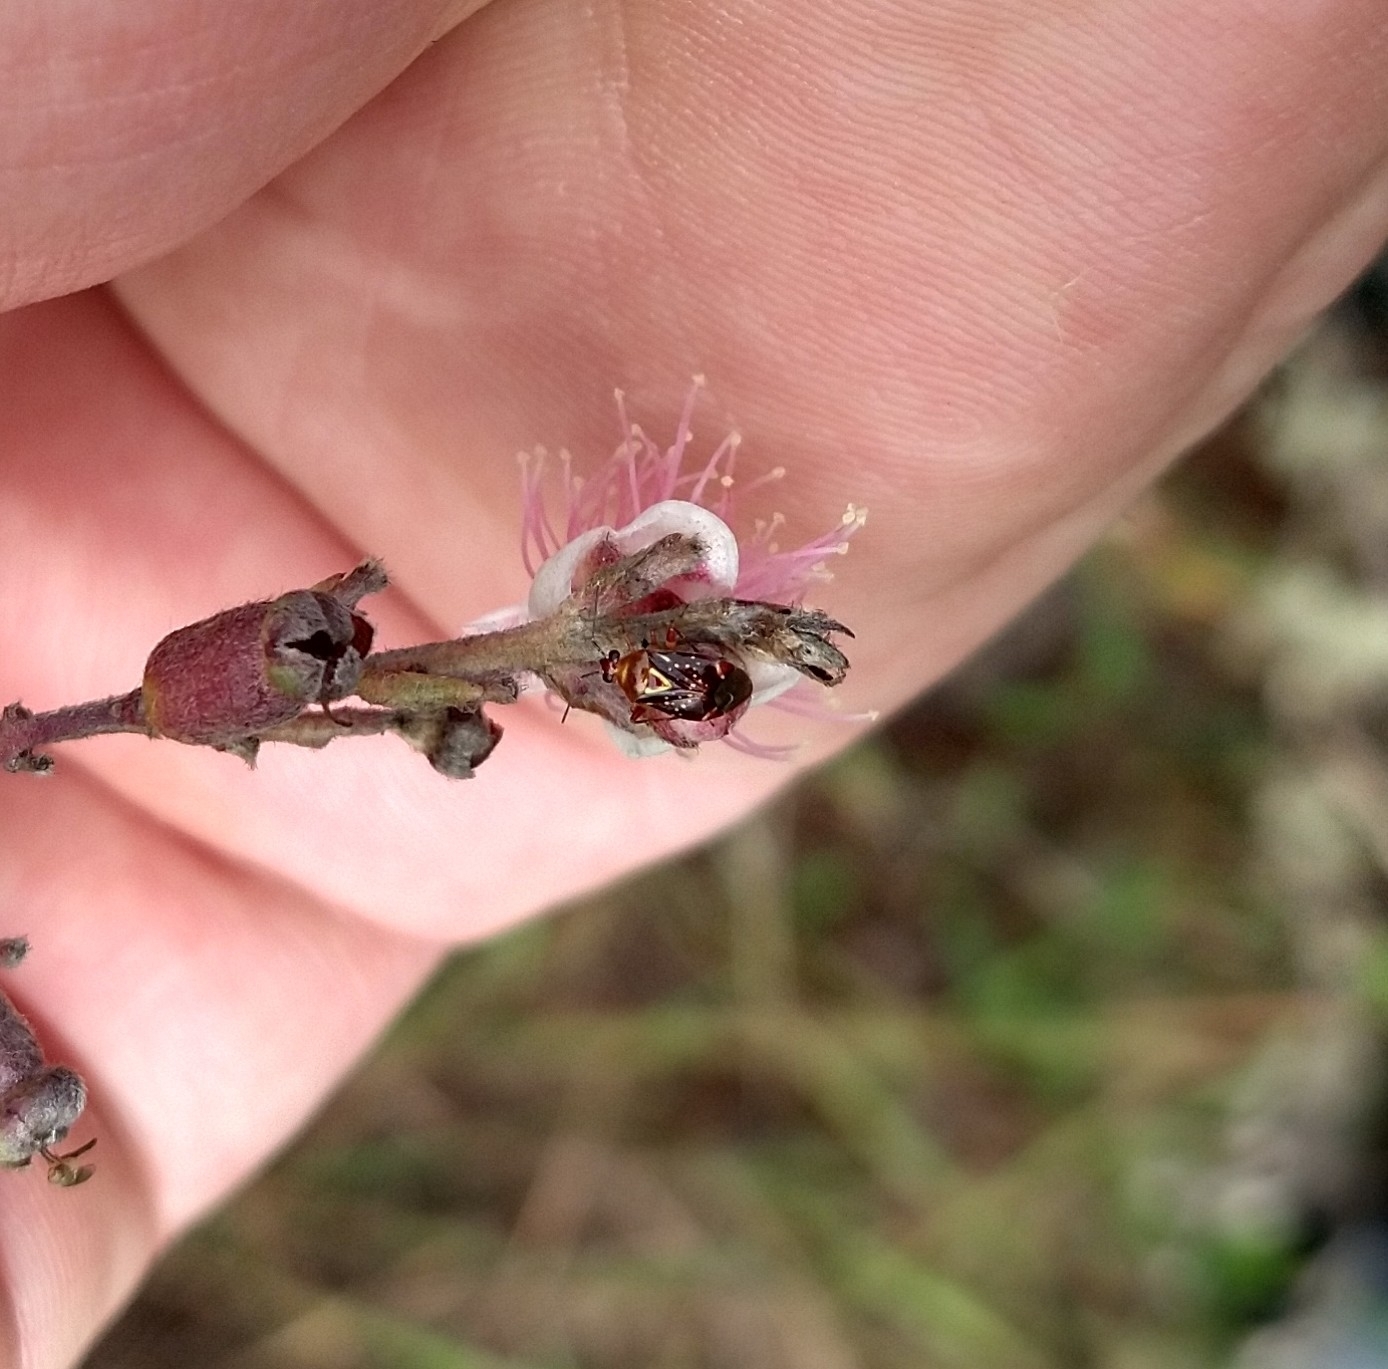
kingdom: Animalia
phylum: Arthropoda
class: Insecta
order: Hemiptera
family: Miridae
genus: Horciasoides
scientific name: Horciasoides nobilellus
